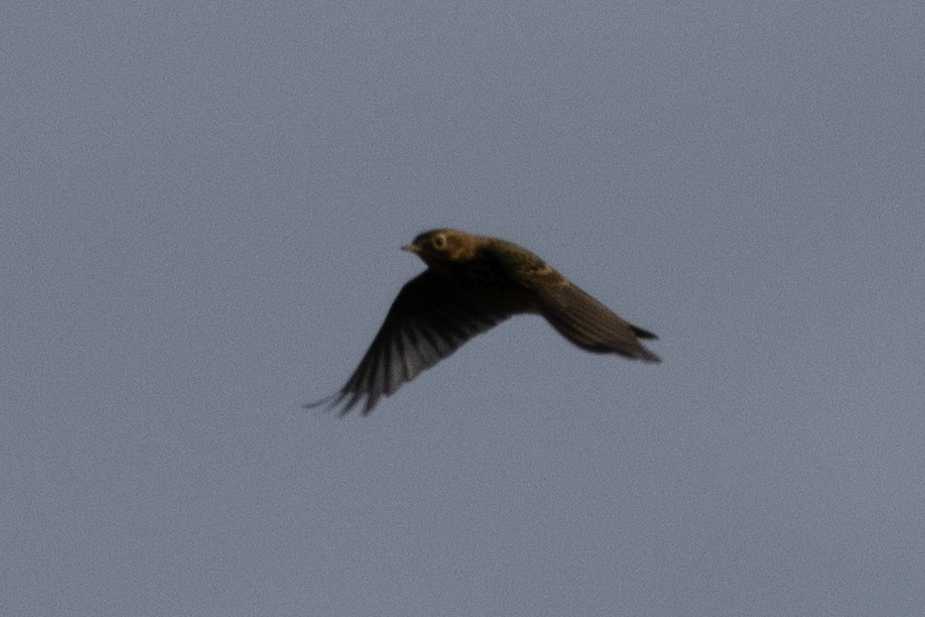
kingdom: Animalia
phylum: Chordata
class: Aves
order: Passeriformes
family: Motacillidae
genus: Anthus
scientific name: Anthus pratensis
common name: Meadow pipit
